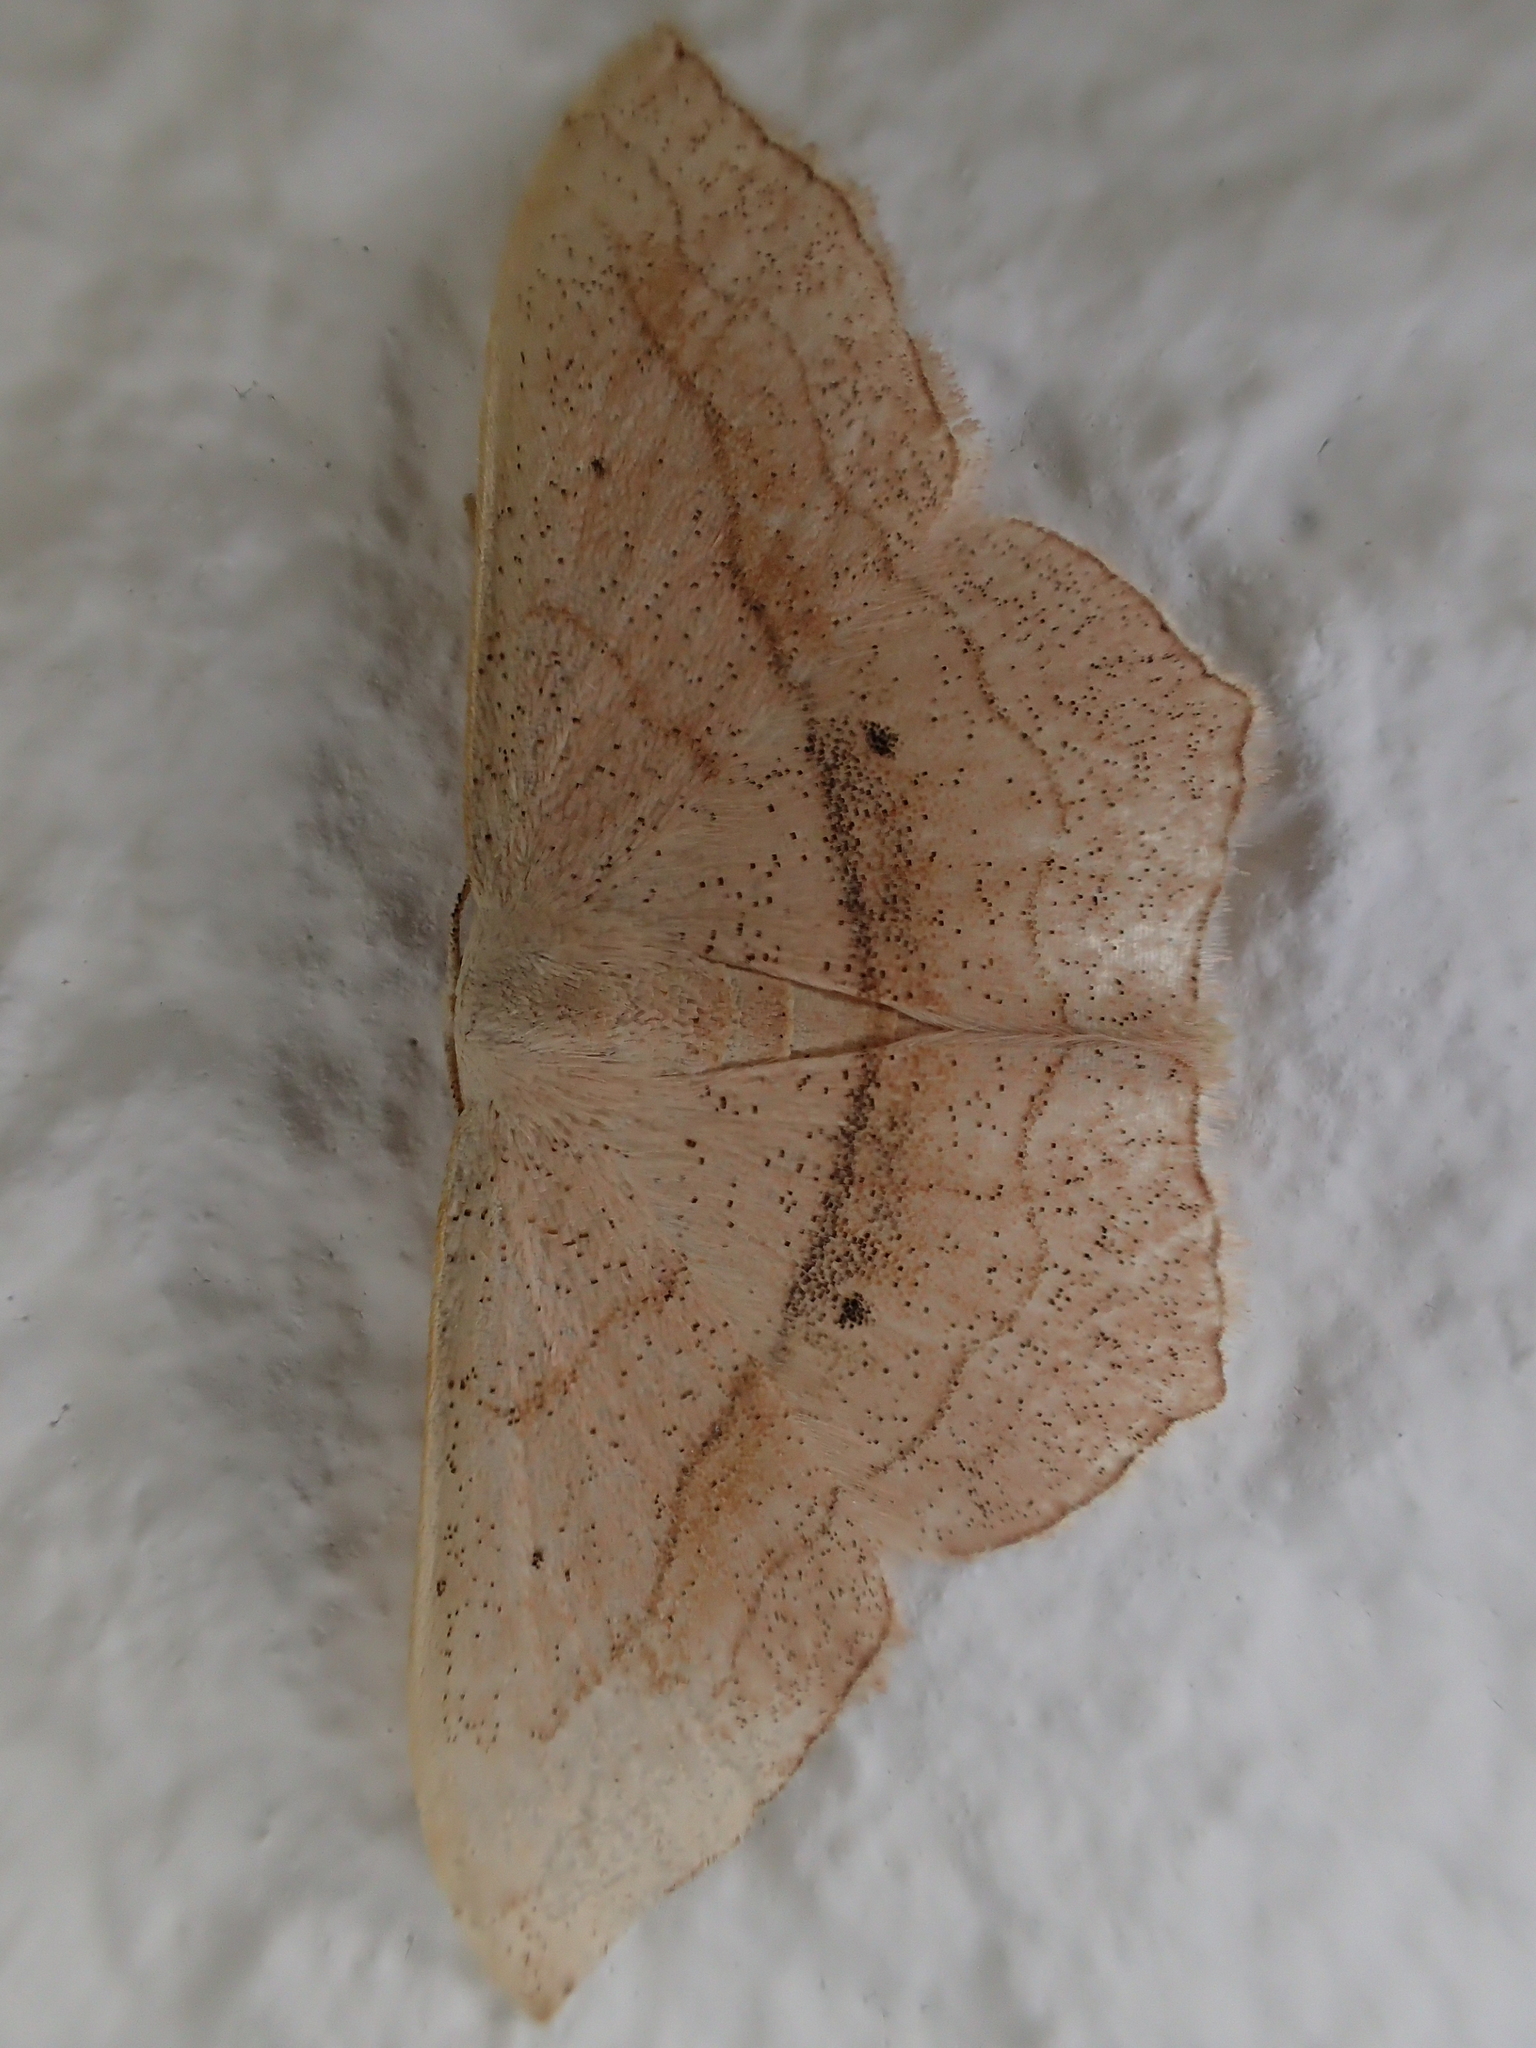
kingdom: Animalia
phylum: Arthropoda
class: Insecta
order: Lepidoptera
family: Geometridae
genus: Scopula
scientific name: Scopula imitaria
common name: Small blood-vein
